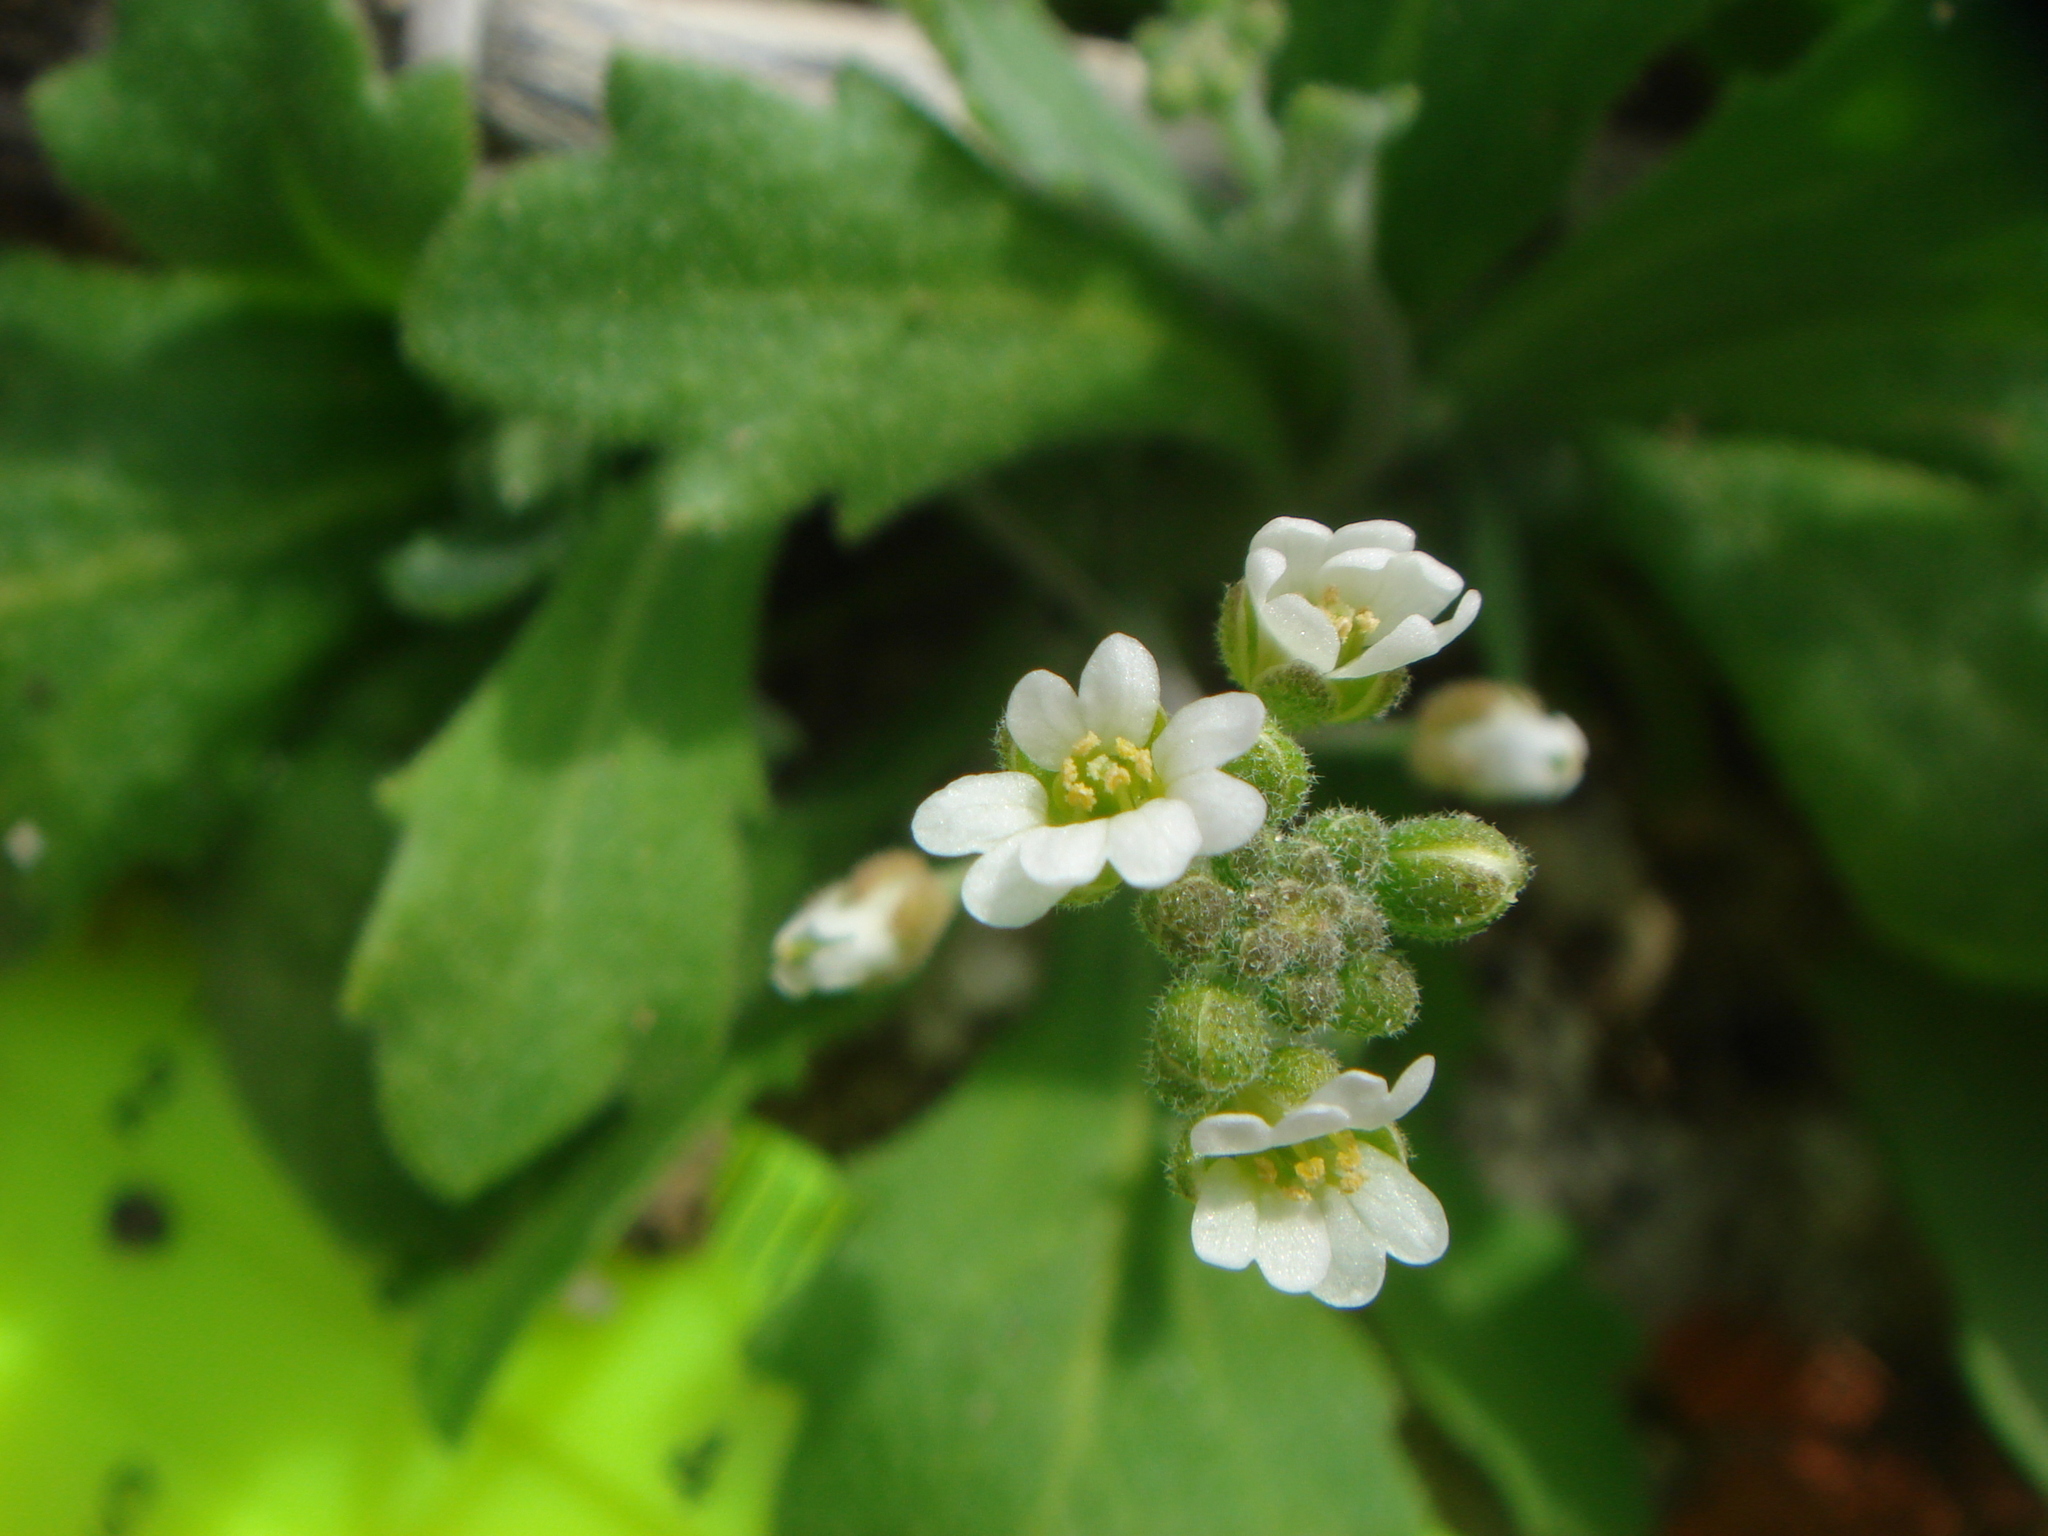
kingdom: Plantae
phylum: Tracheophyta
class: Magnoliopsida
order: Brassicales
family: Brassicaceae
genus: Tomostima
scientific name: Tomostima cuneifolia
